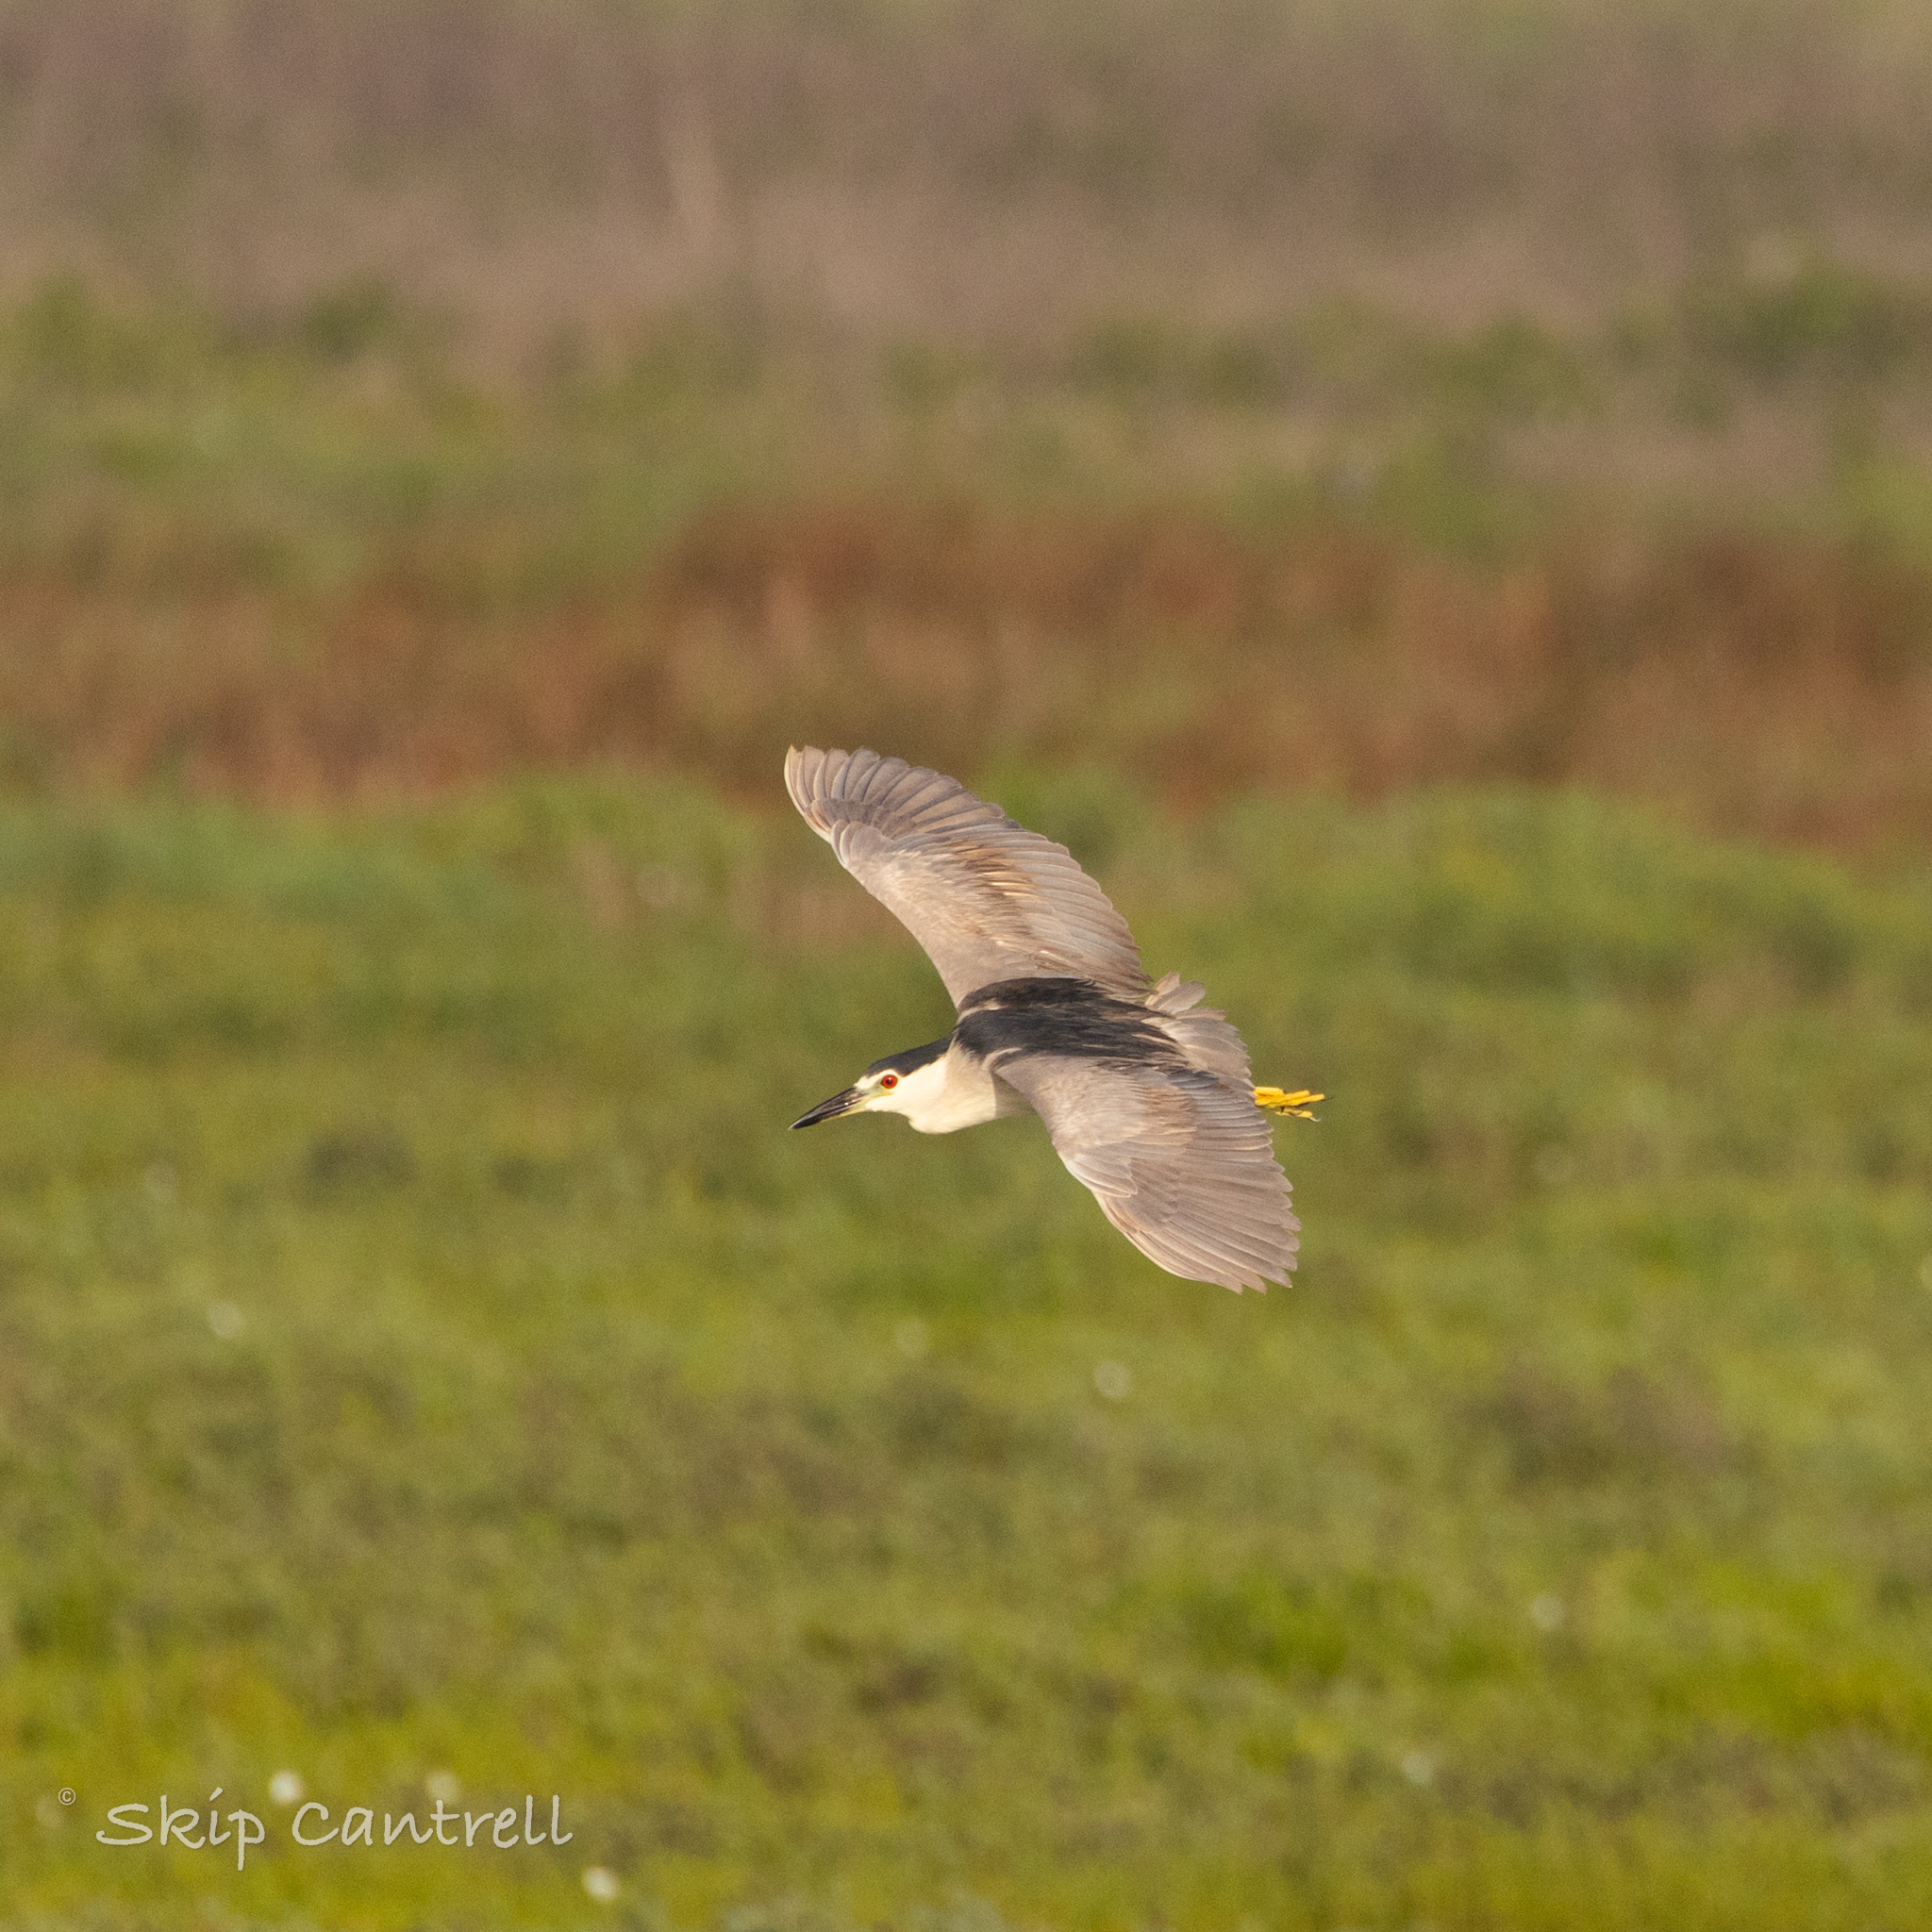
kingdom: Animalia
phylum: Chordata
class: Aves
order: Pelecaniformes
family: Ardeidae
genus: Nycticorax
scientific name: Nycticorax nycticorax
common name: Black-crowned night heron
